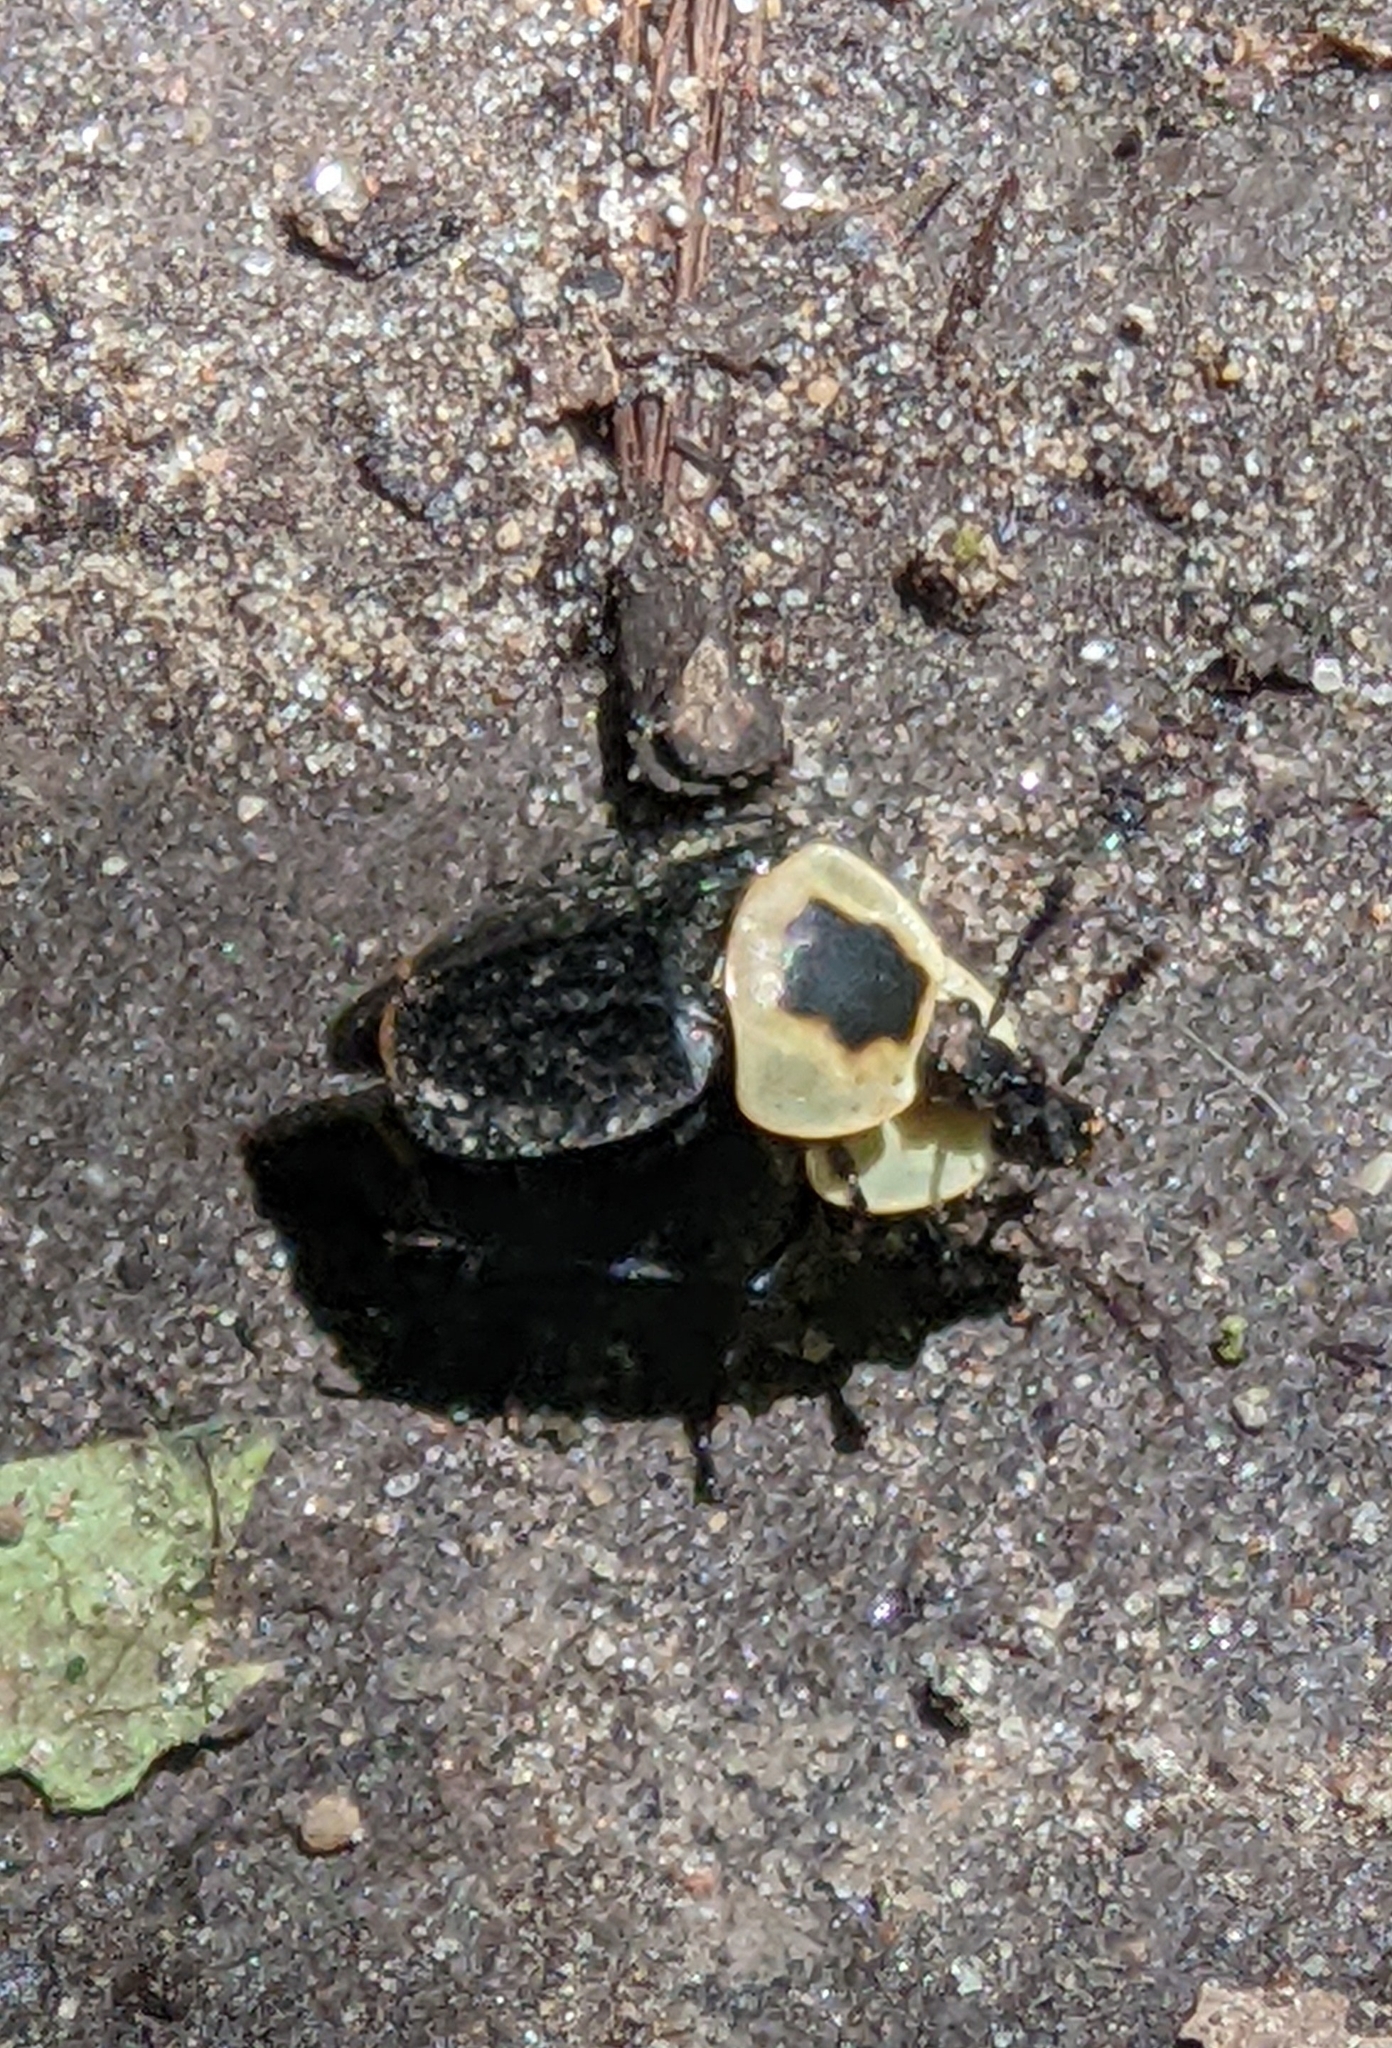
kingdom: Animalia
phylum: Arthropoda
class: Insecta
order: Coleoptera
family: Staphylinidae
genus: Necrophila
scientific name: Necrophila americana
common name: American carrion beetle
